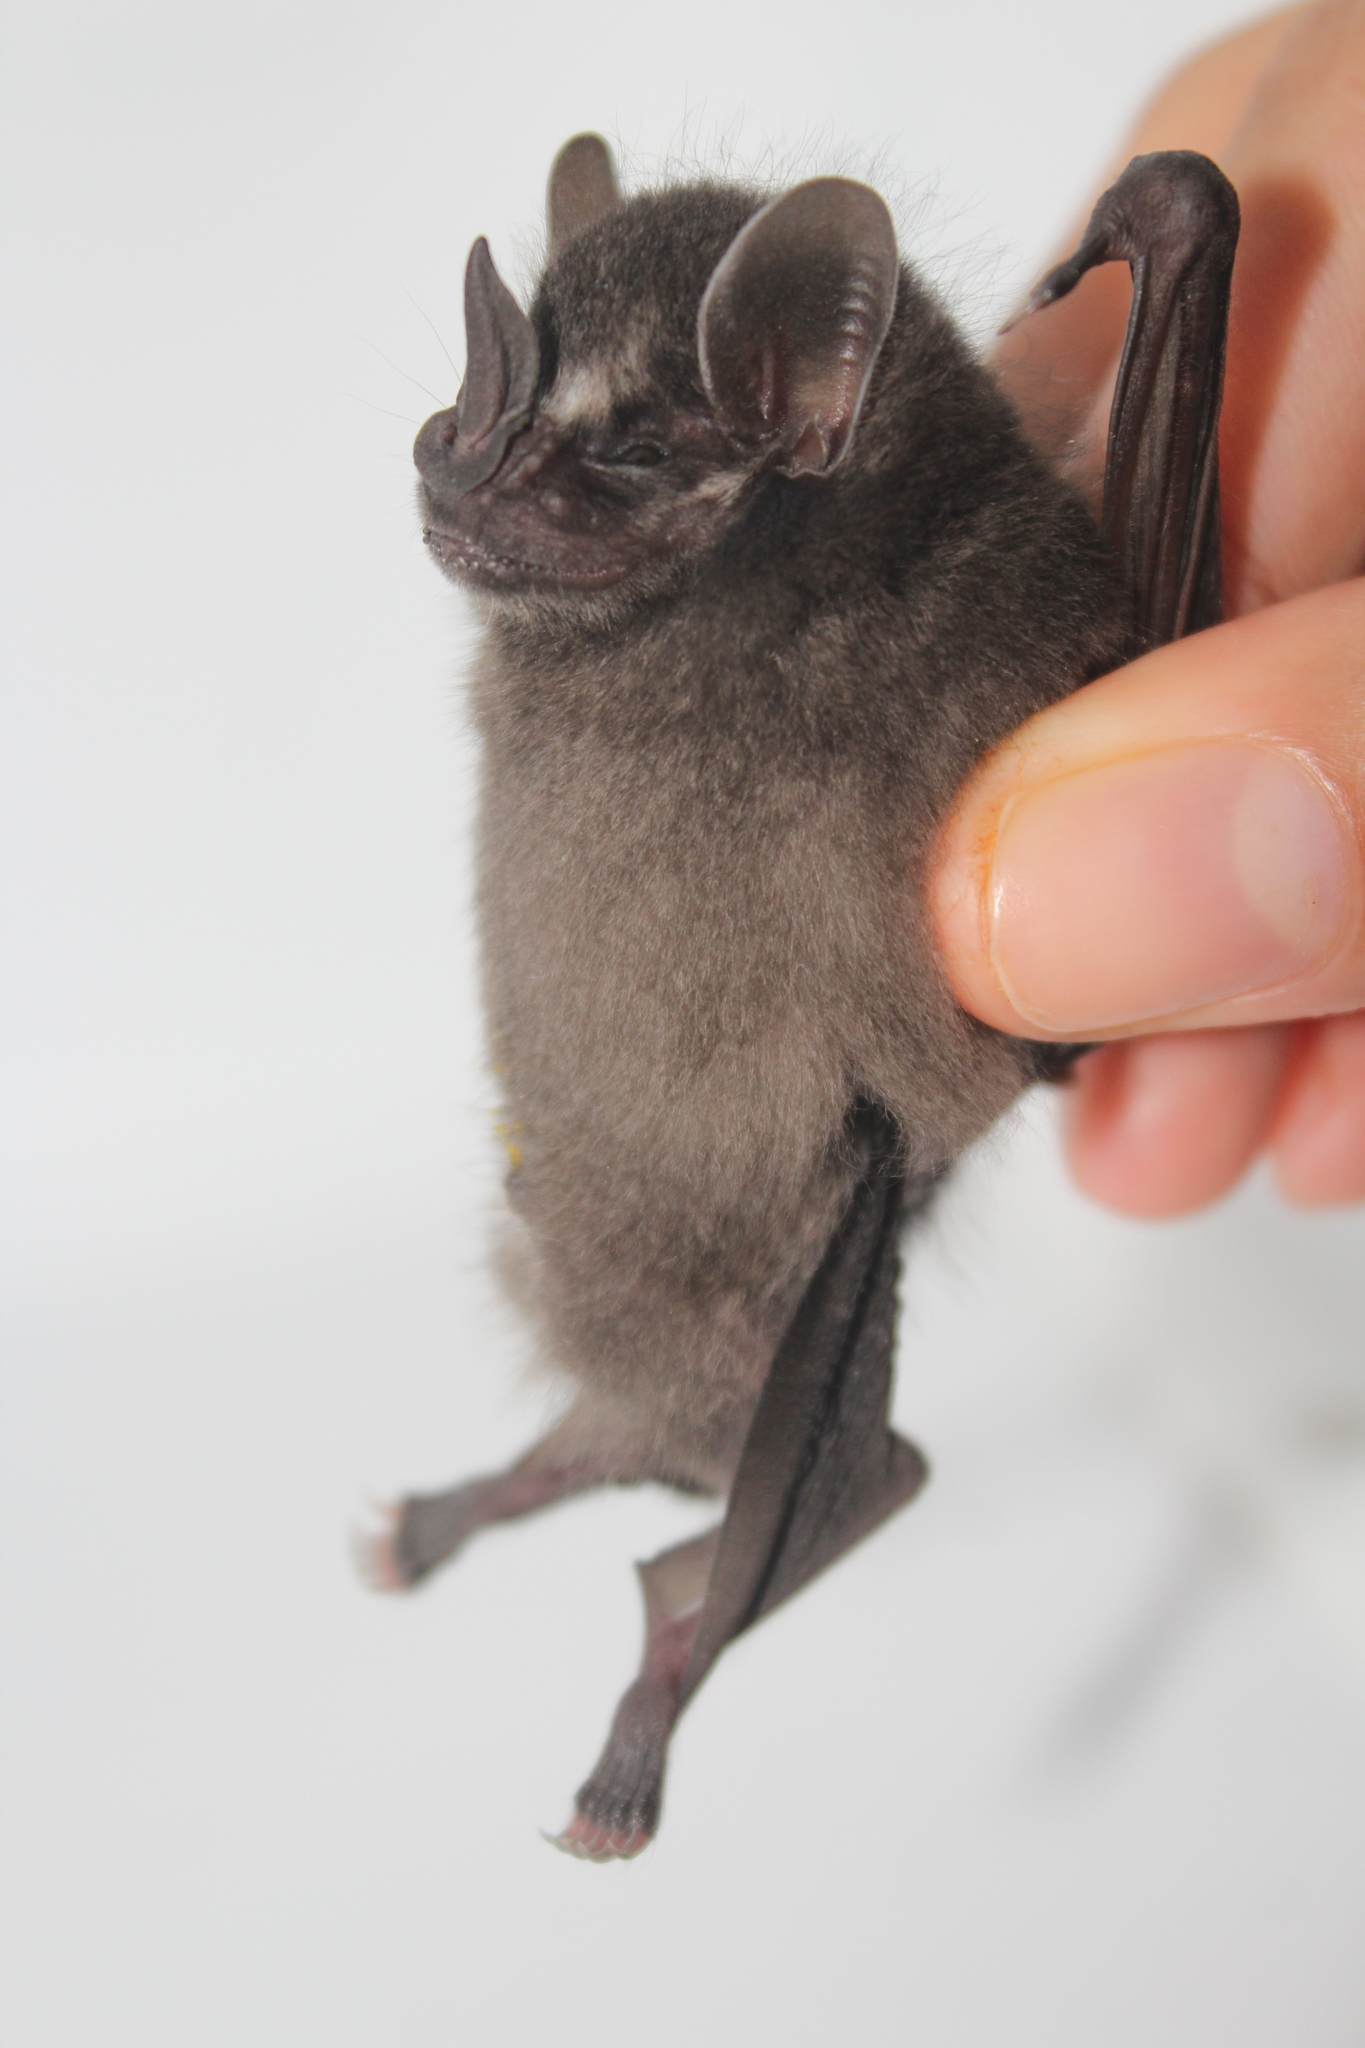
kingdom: Animalia
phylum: Chordata
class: Mammalia
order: Chiroptera
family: Phyllostomidae
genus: Artibeus
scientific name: Artibeus toltecus
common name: Toltec fruit-eating bat
